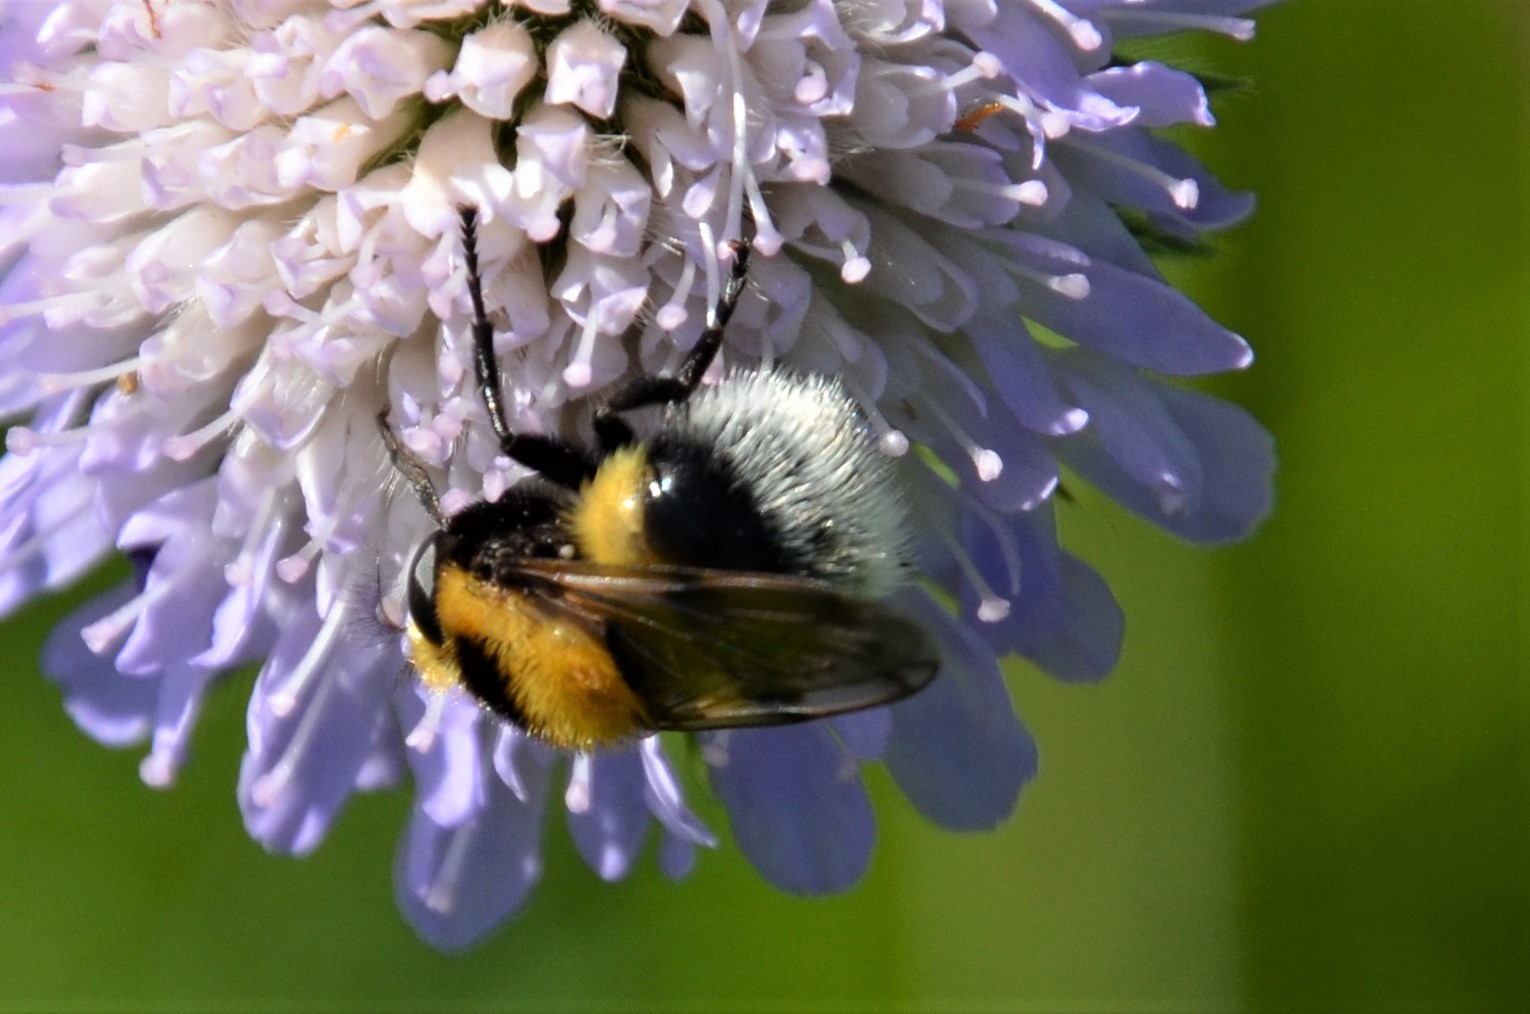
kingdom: Animalia
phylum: Arthropoda
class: Insecta
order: Diptera
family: Syrphidae
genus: Volucella
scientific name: Volucella bombylans
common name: Bumble bee hover fly
